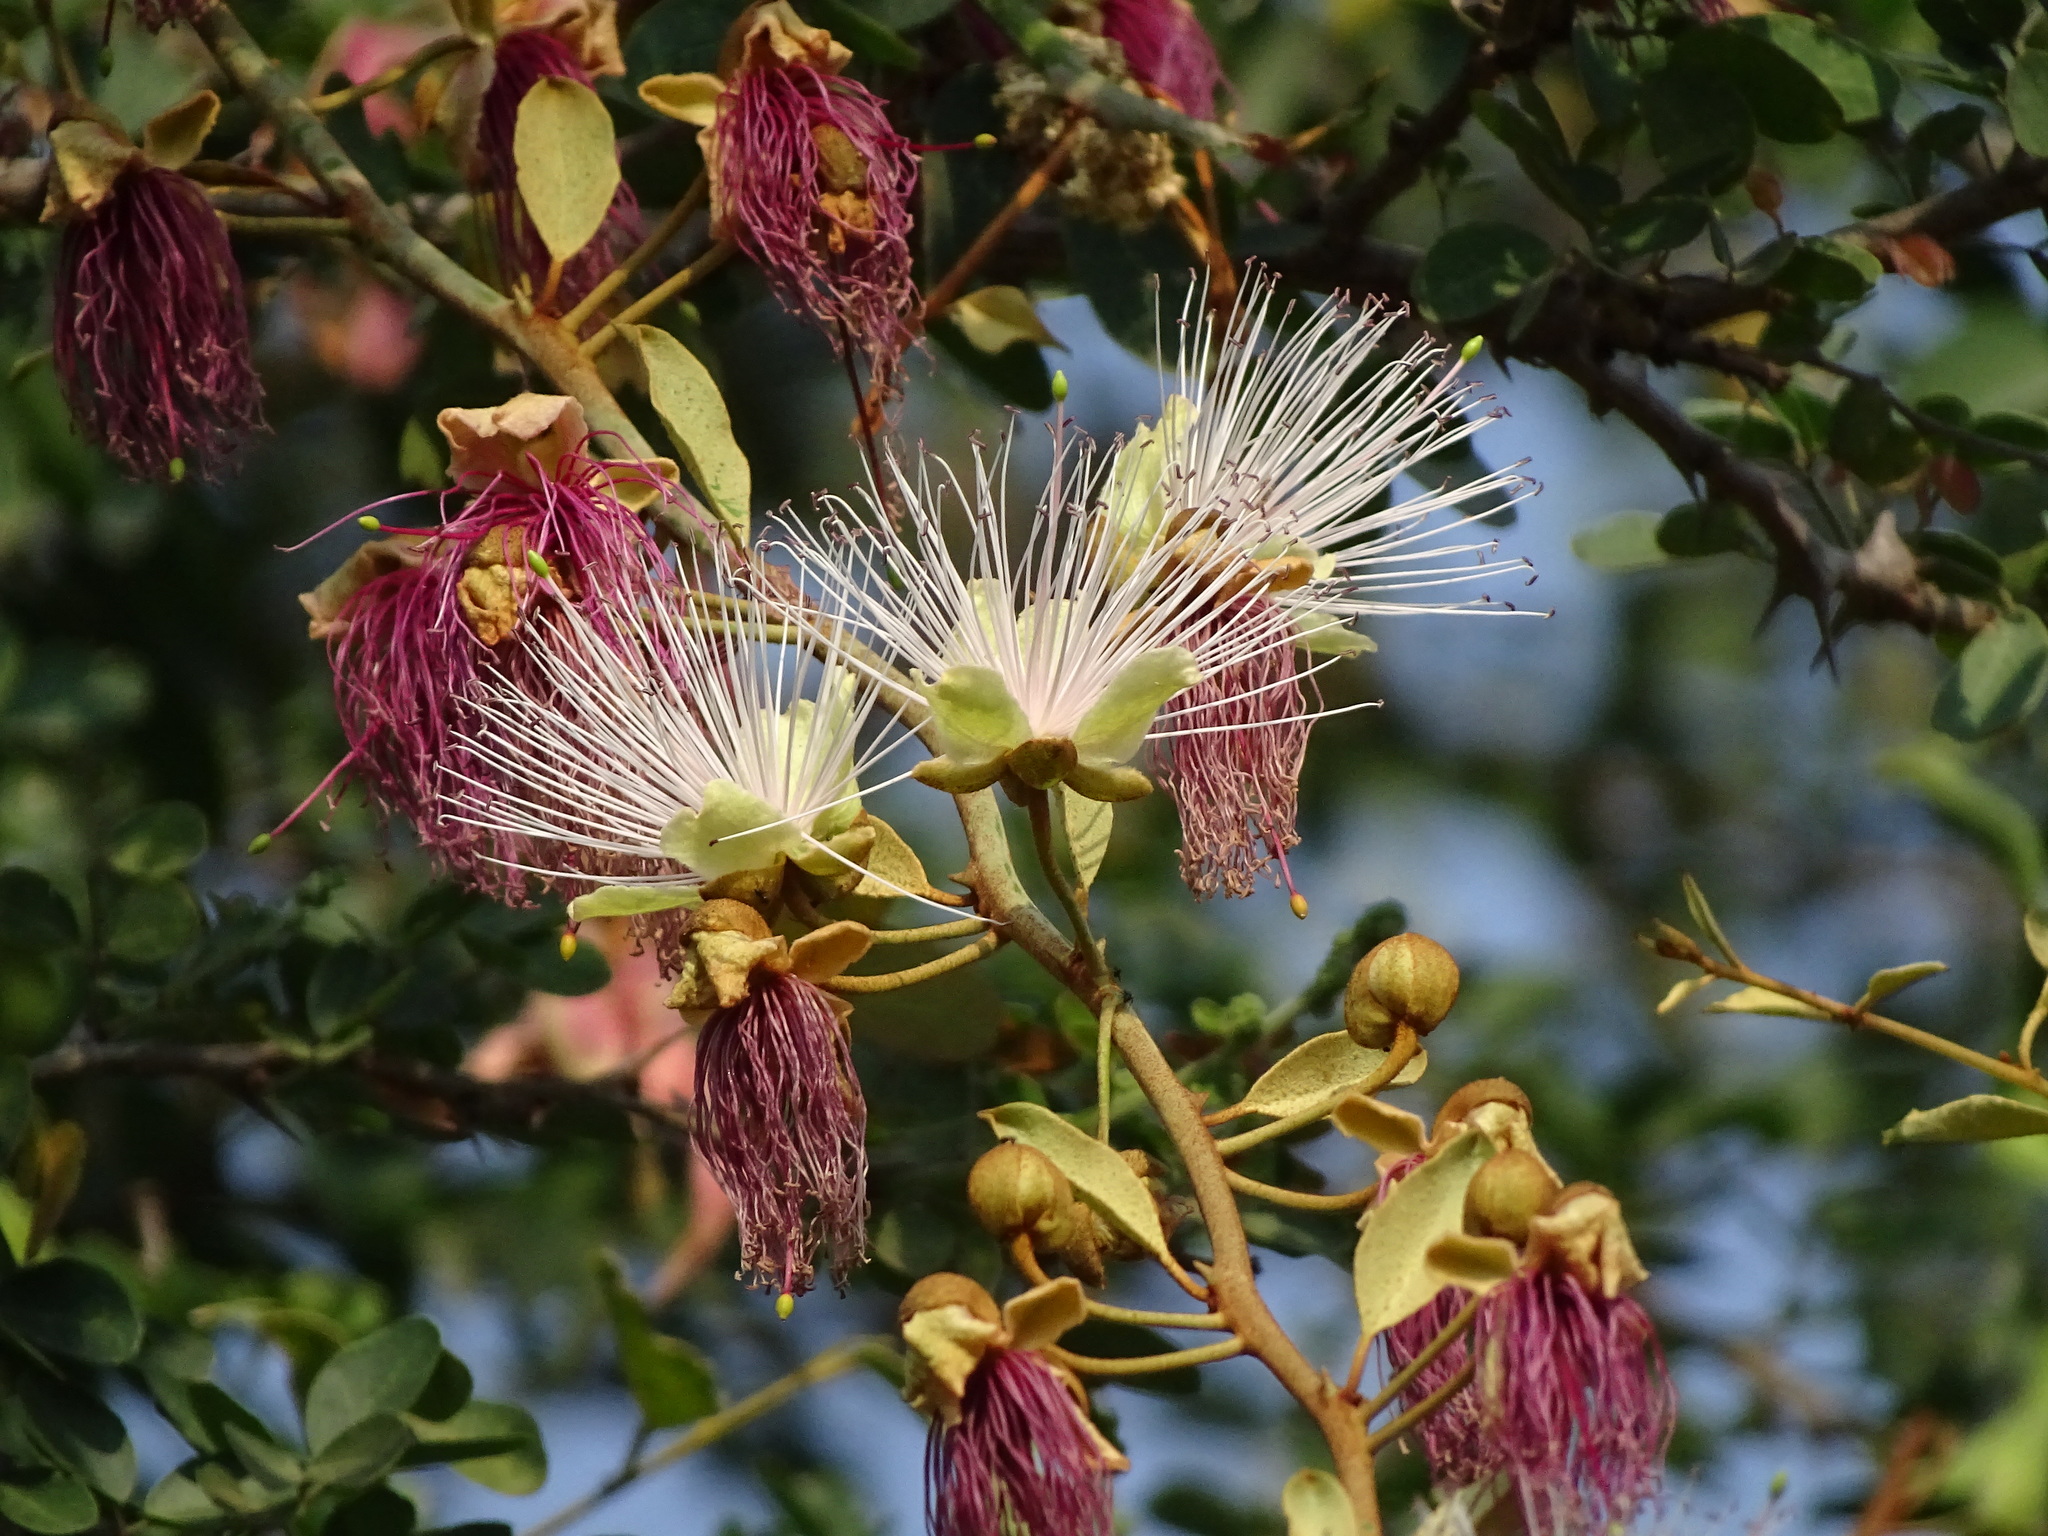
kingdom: Plantae
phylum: Tracheophyta
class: Magnoliopsida
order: Brassicales
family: Capparaceae
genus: Capparis
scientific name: Capparis zeylanica
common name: Ceylon caper
